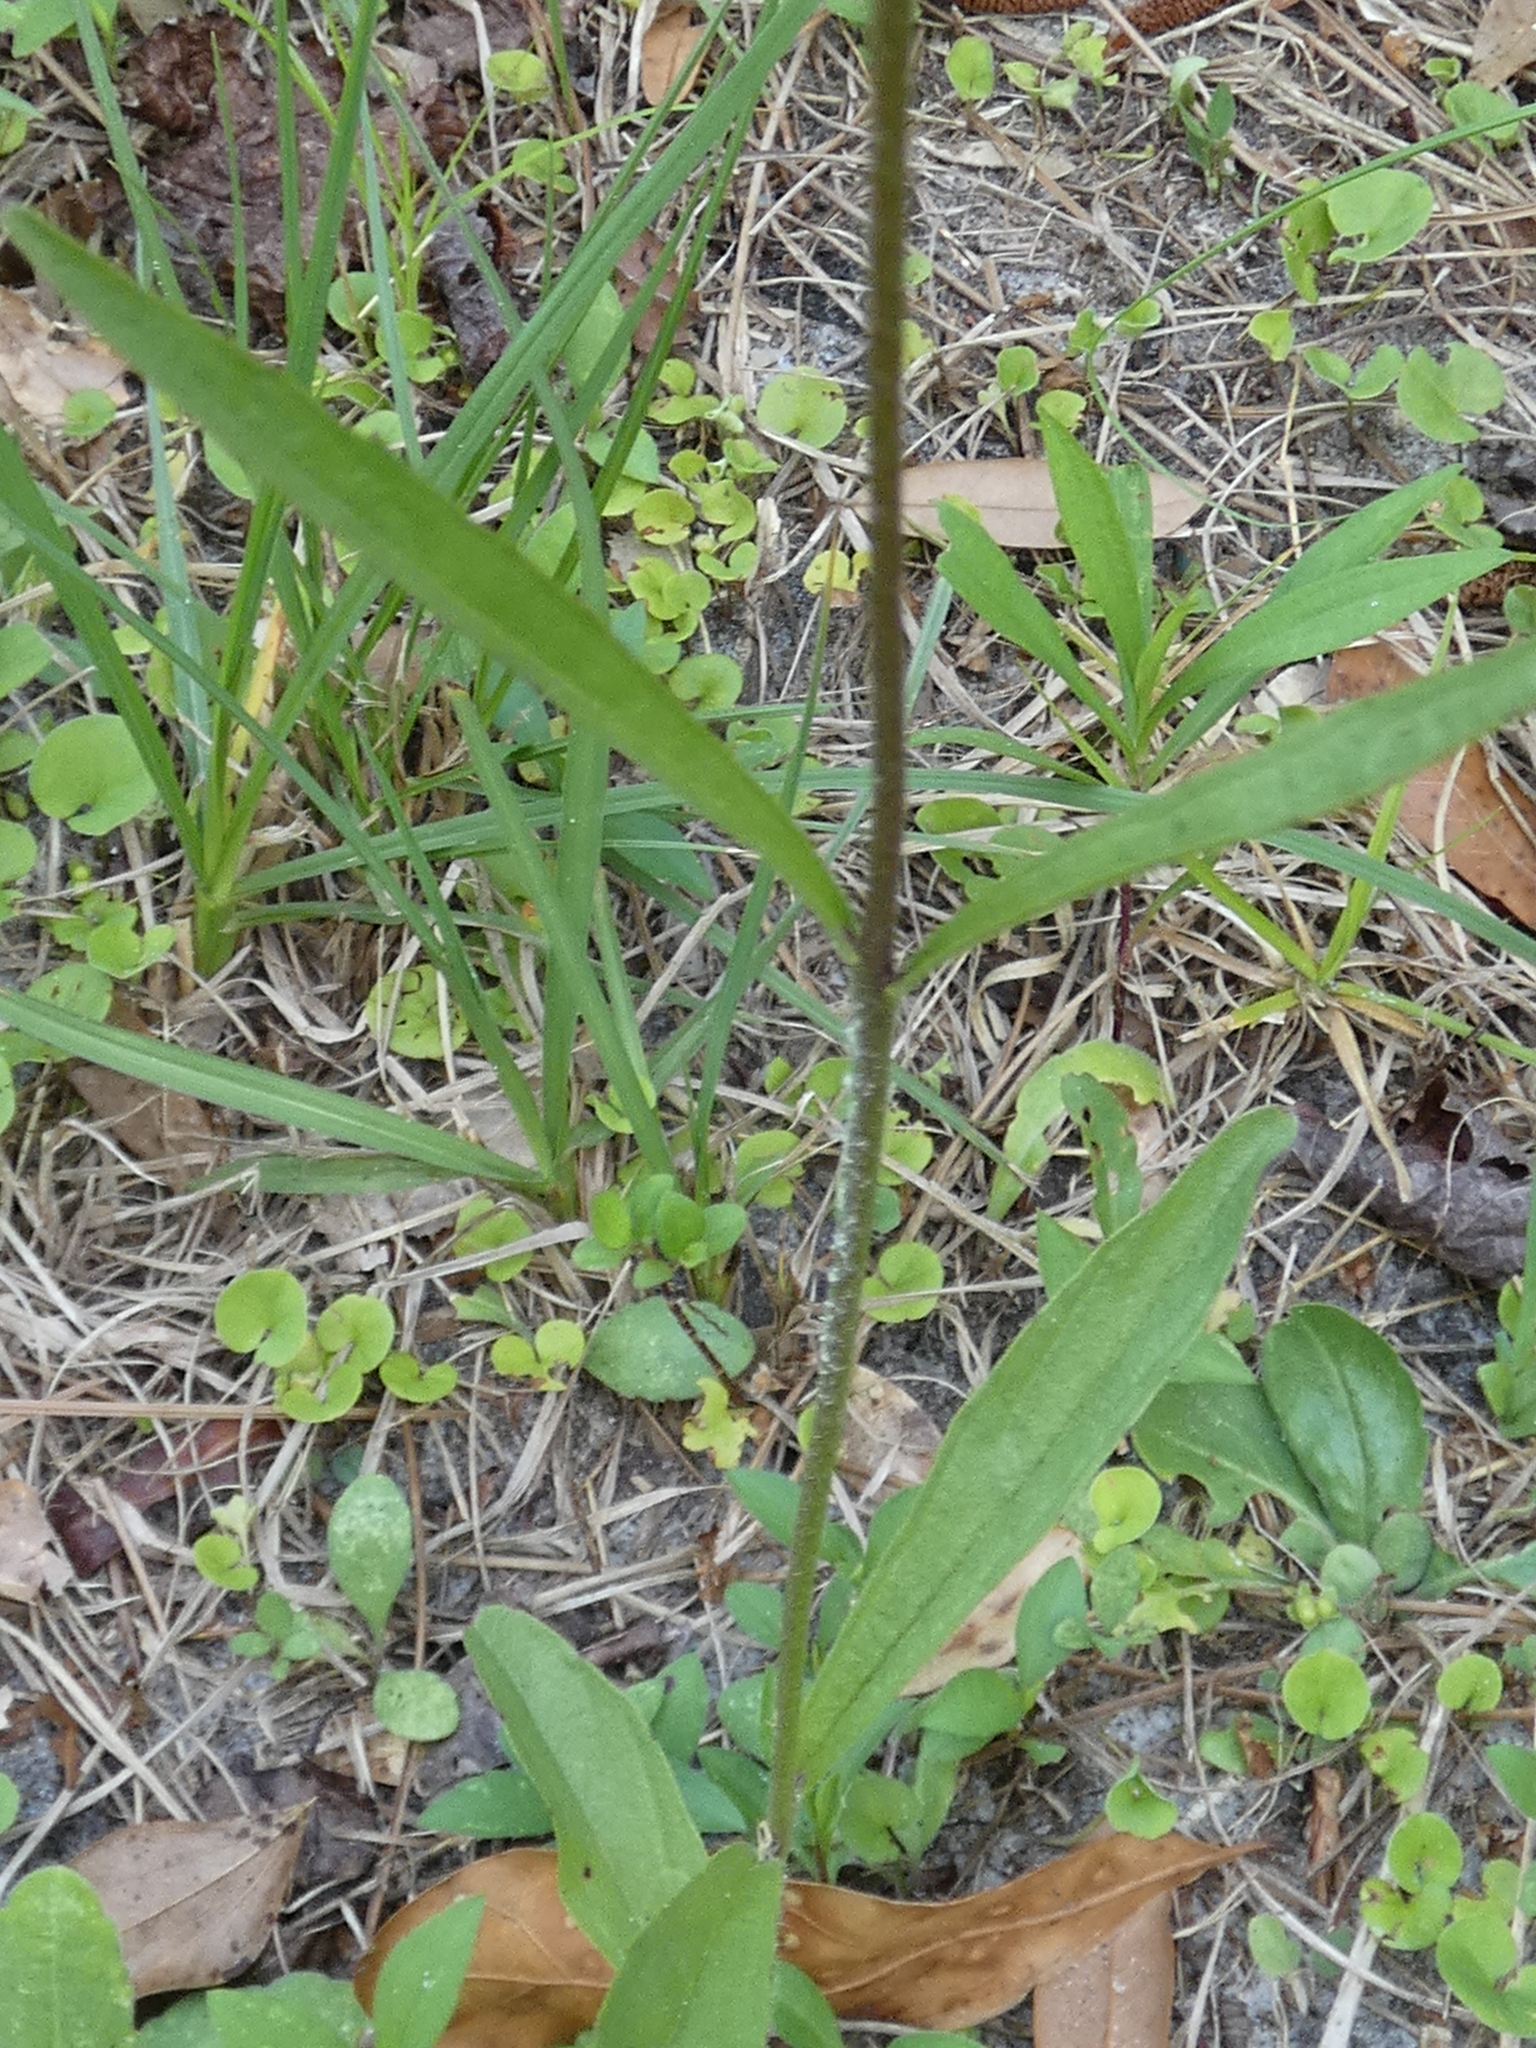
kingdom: Plantae
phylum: Tracheophyta
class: Magnoliopsida
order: Lamiales
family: Orobanchaceae
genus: Buchnera
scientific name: Buchnera floridana
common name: Florida bluehearts
